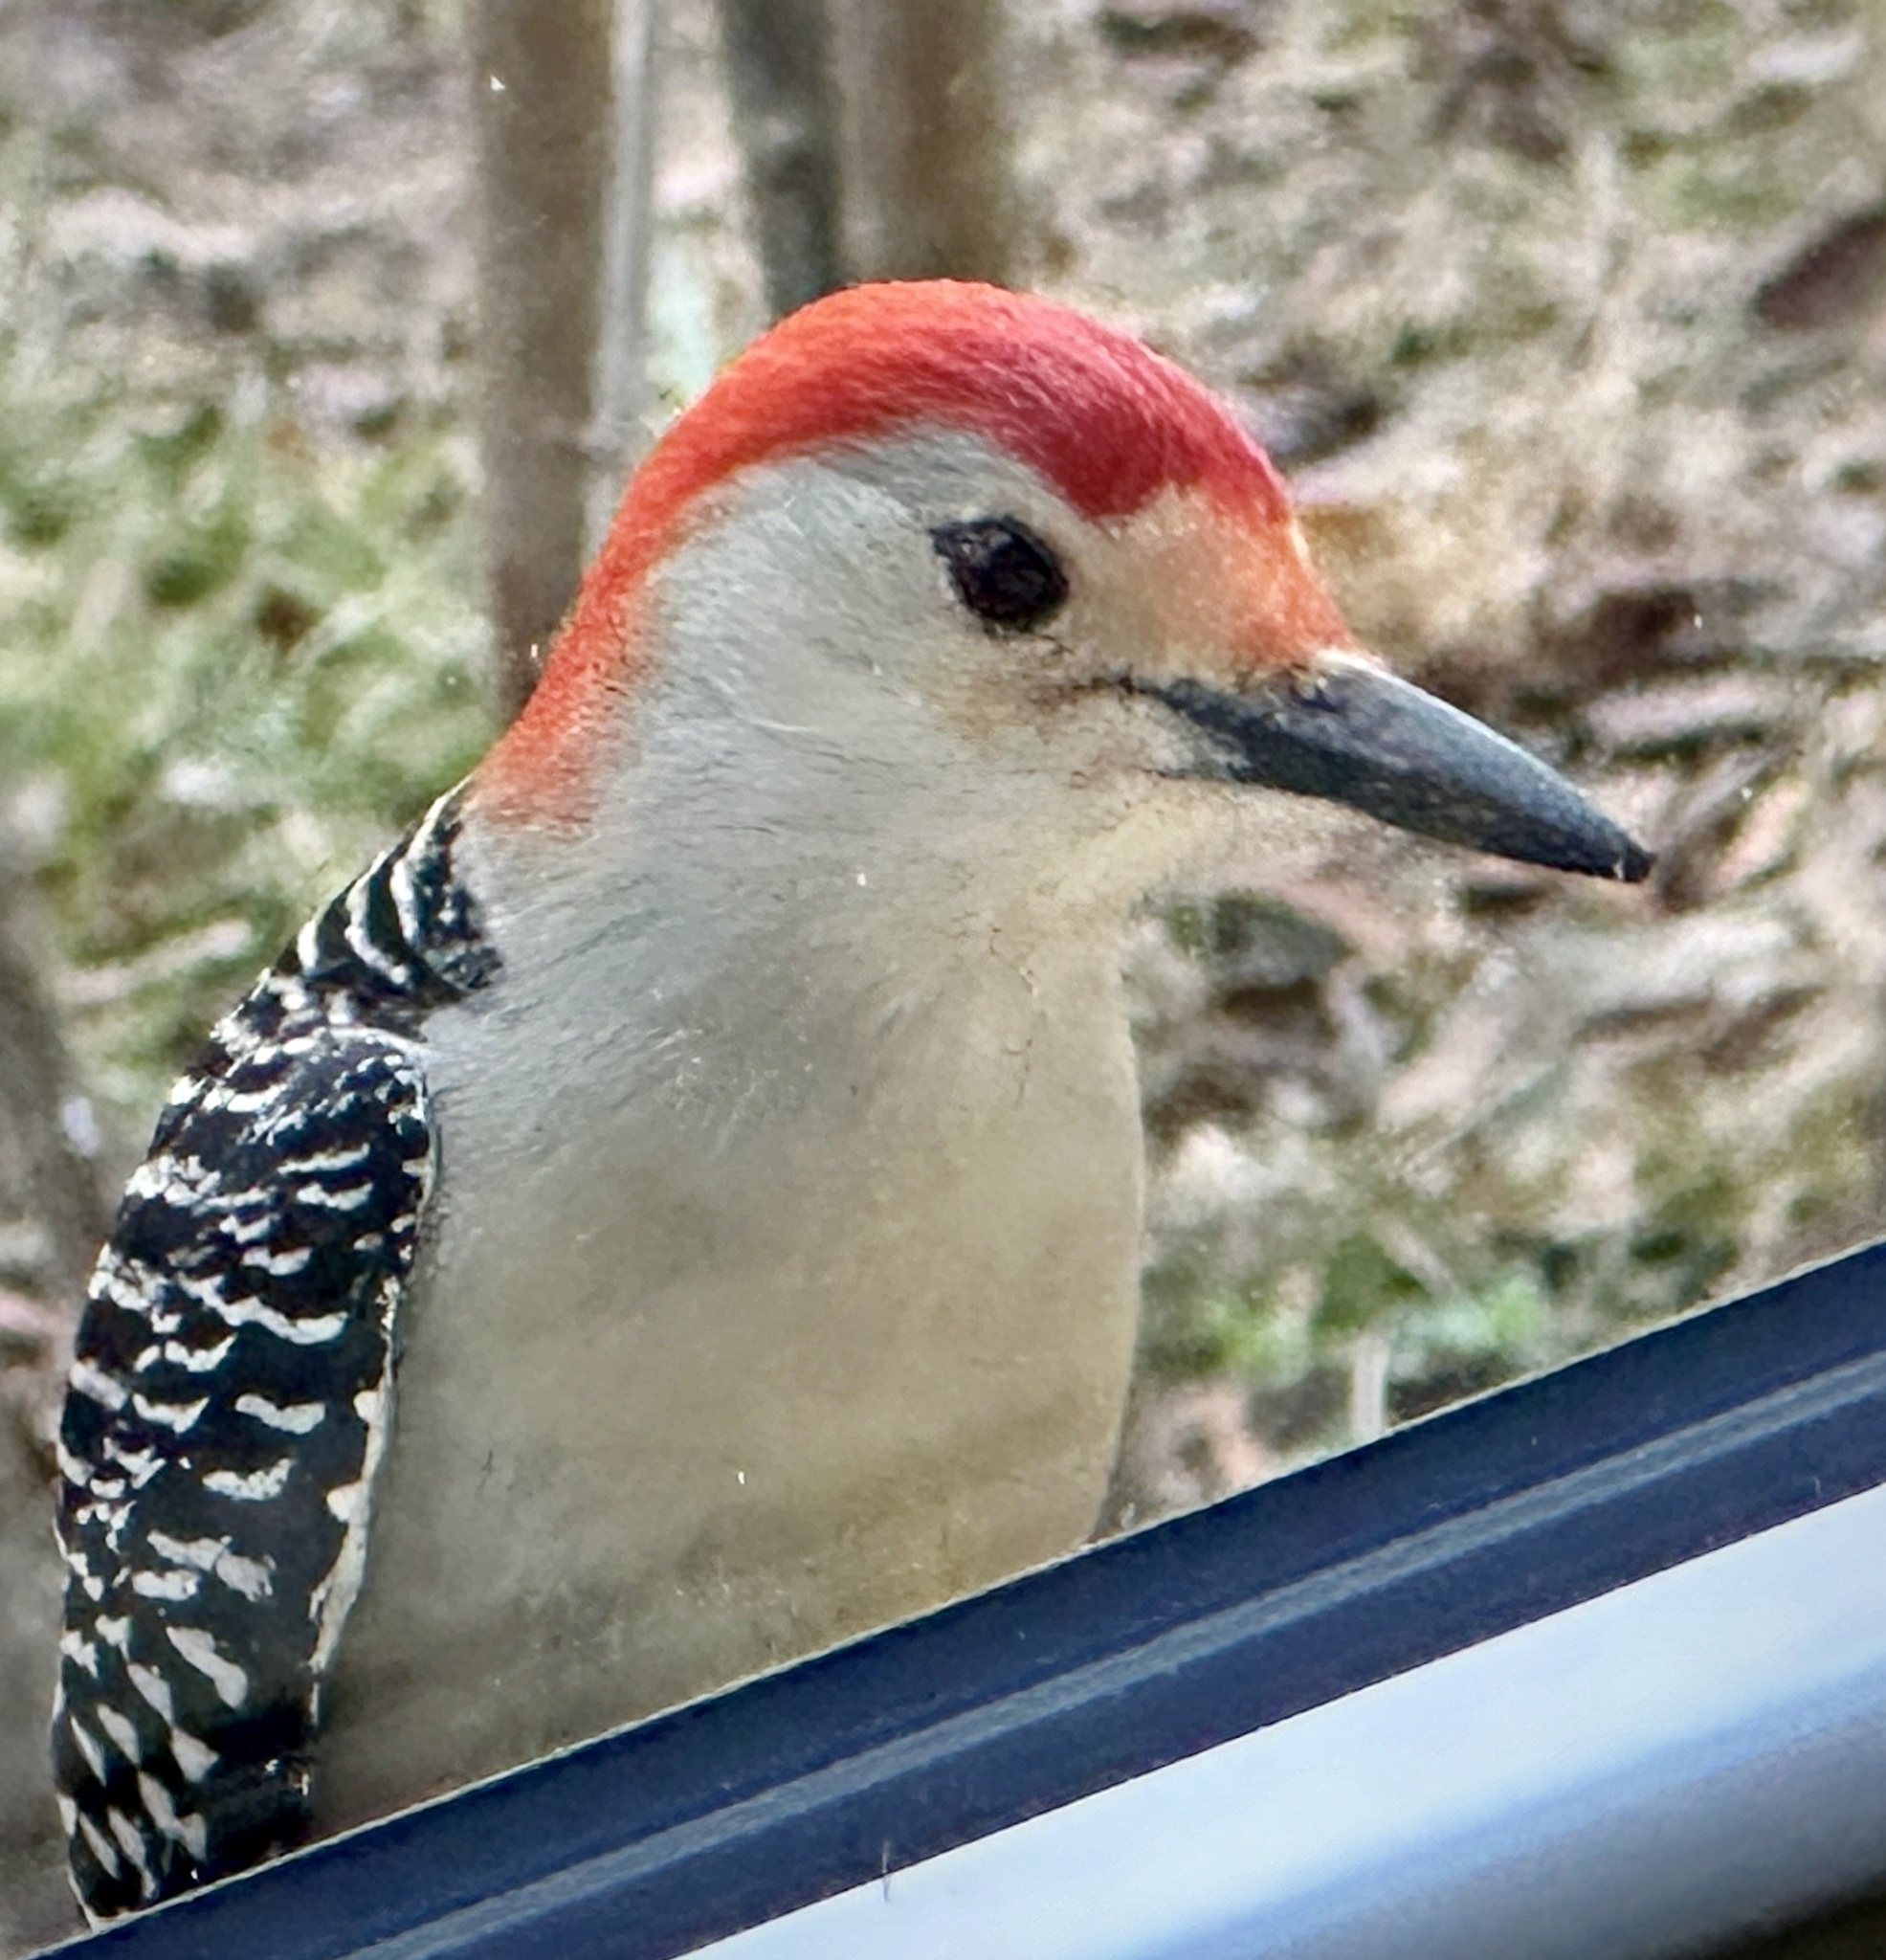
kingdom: Animalia
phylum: Chordata
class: Aves
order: Piciformes
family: Picidae
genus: Melanerpes
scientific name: Melanerpes carolinus
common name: Red-bellied woodpecker
